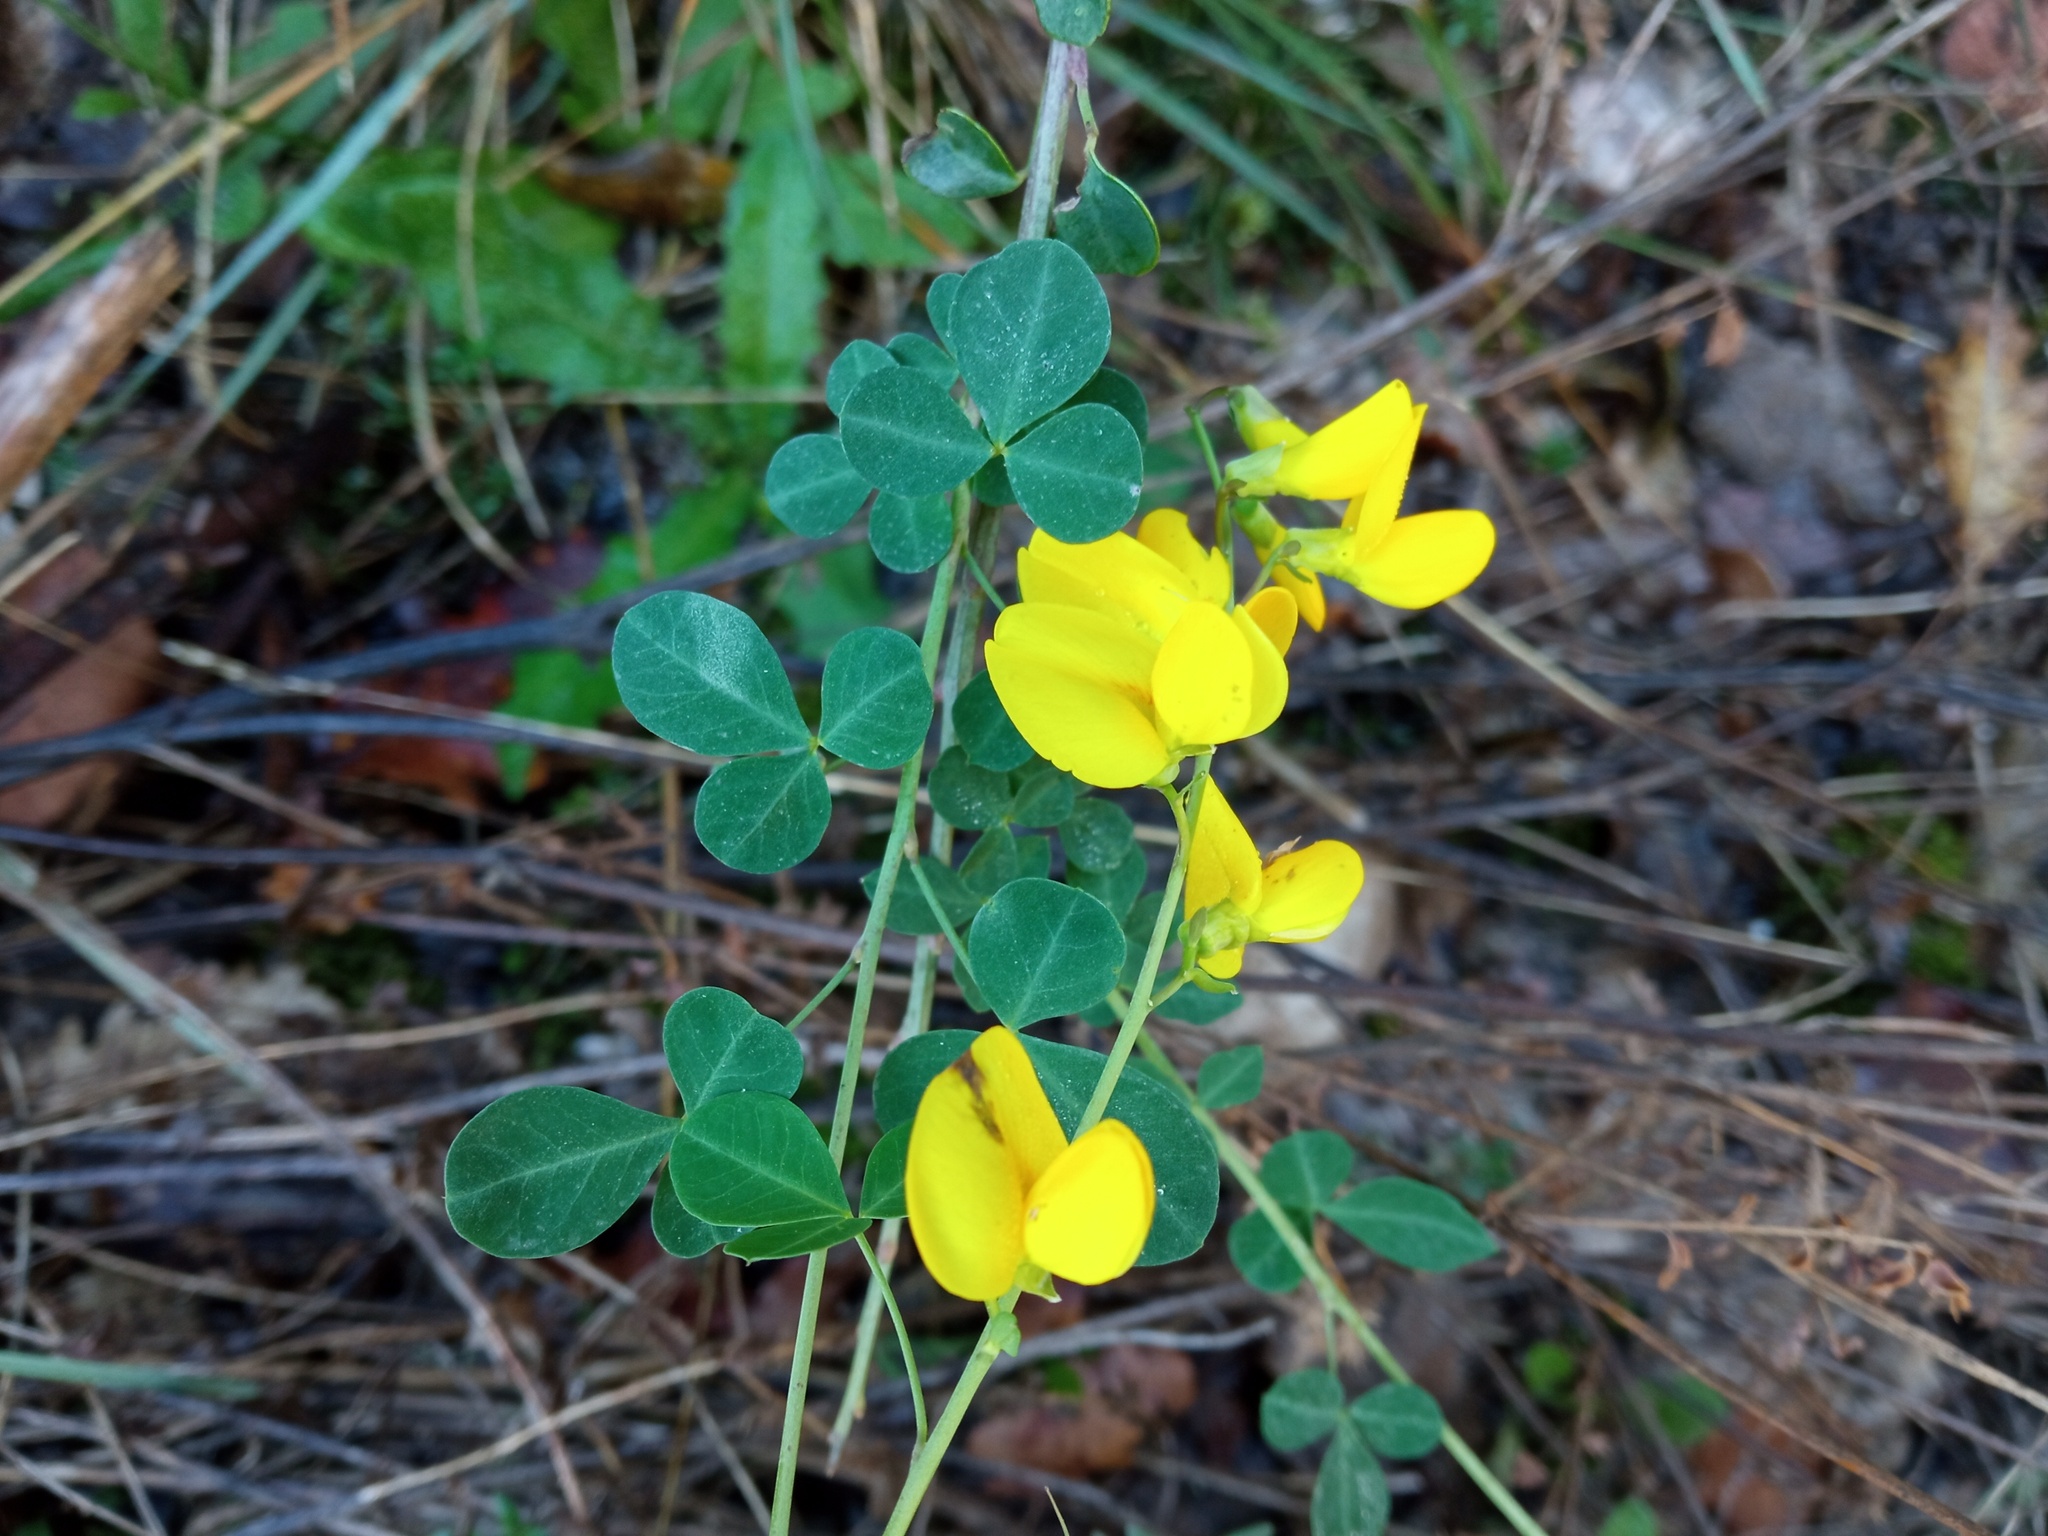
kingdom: Plantae
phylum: Tracheophyta
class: Magnoliopsida
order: Fabales
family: Fabaceae
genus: Cytisophyllum
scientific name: Cytisophyllum sessilifolium
